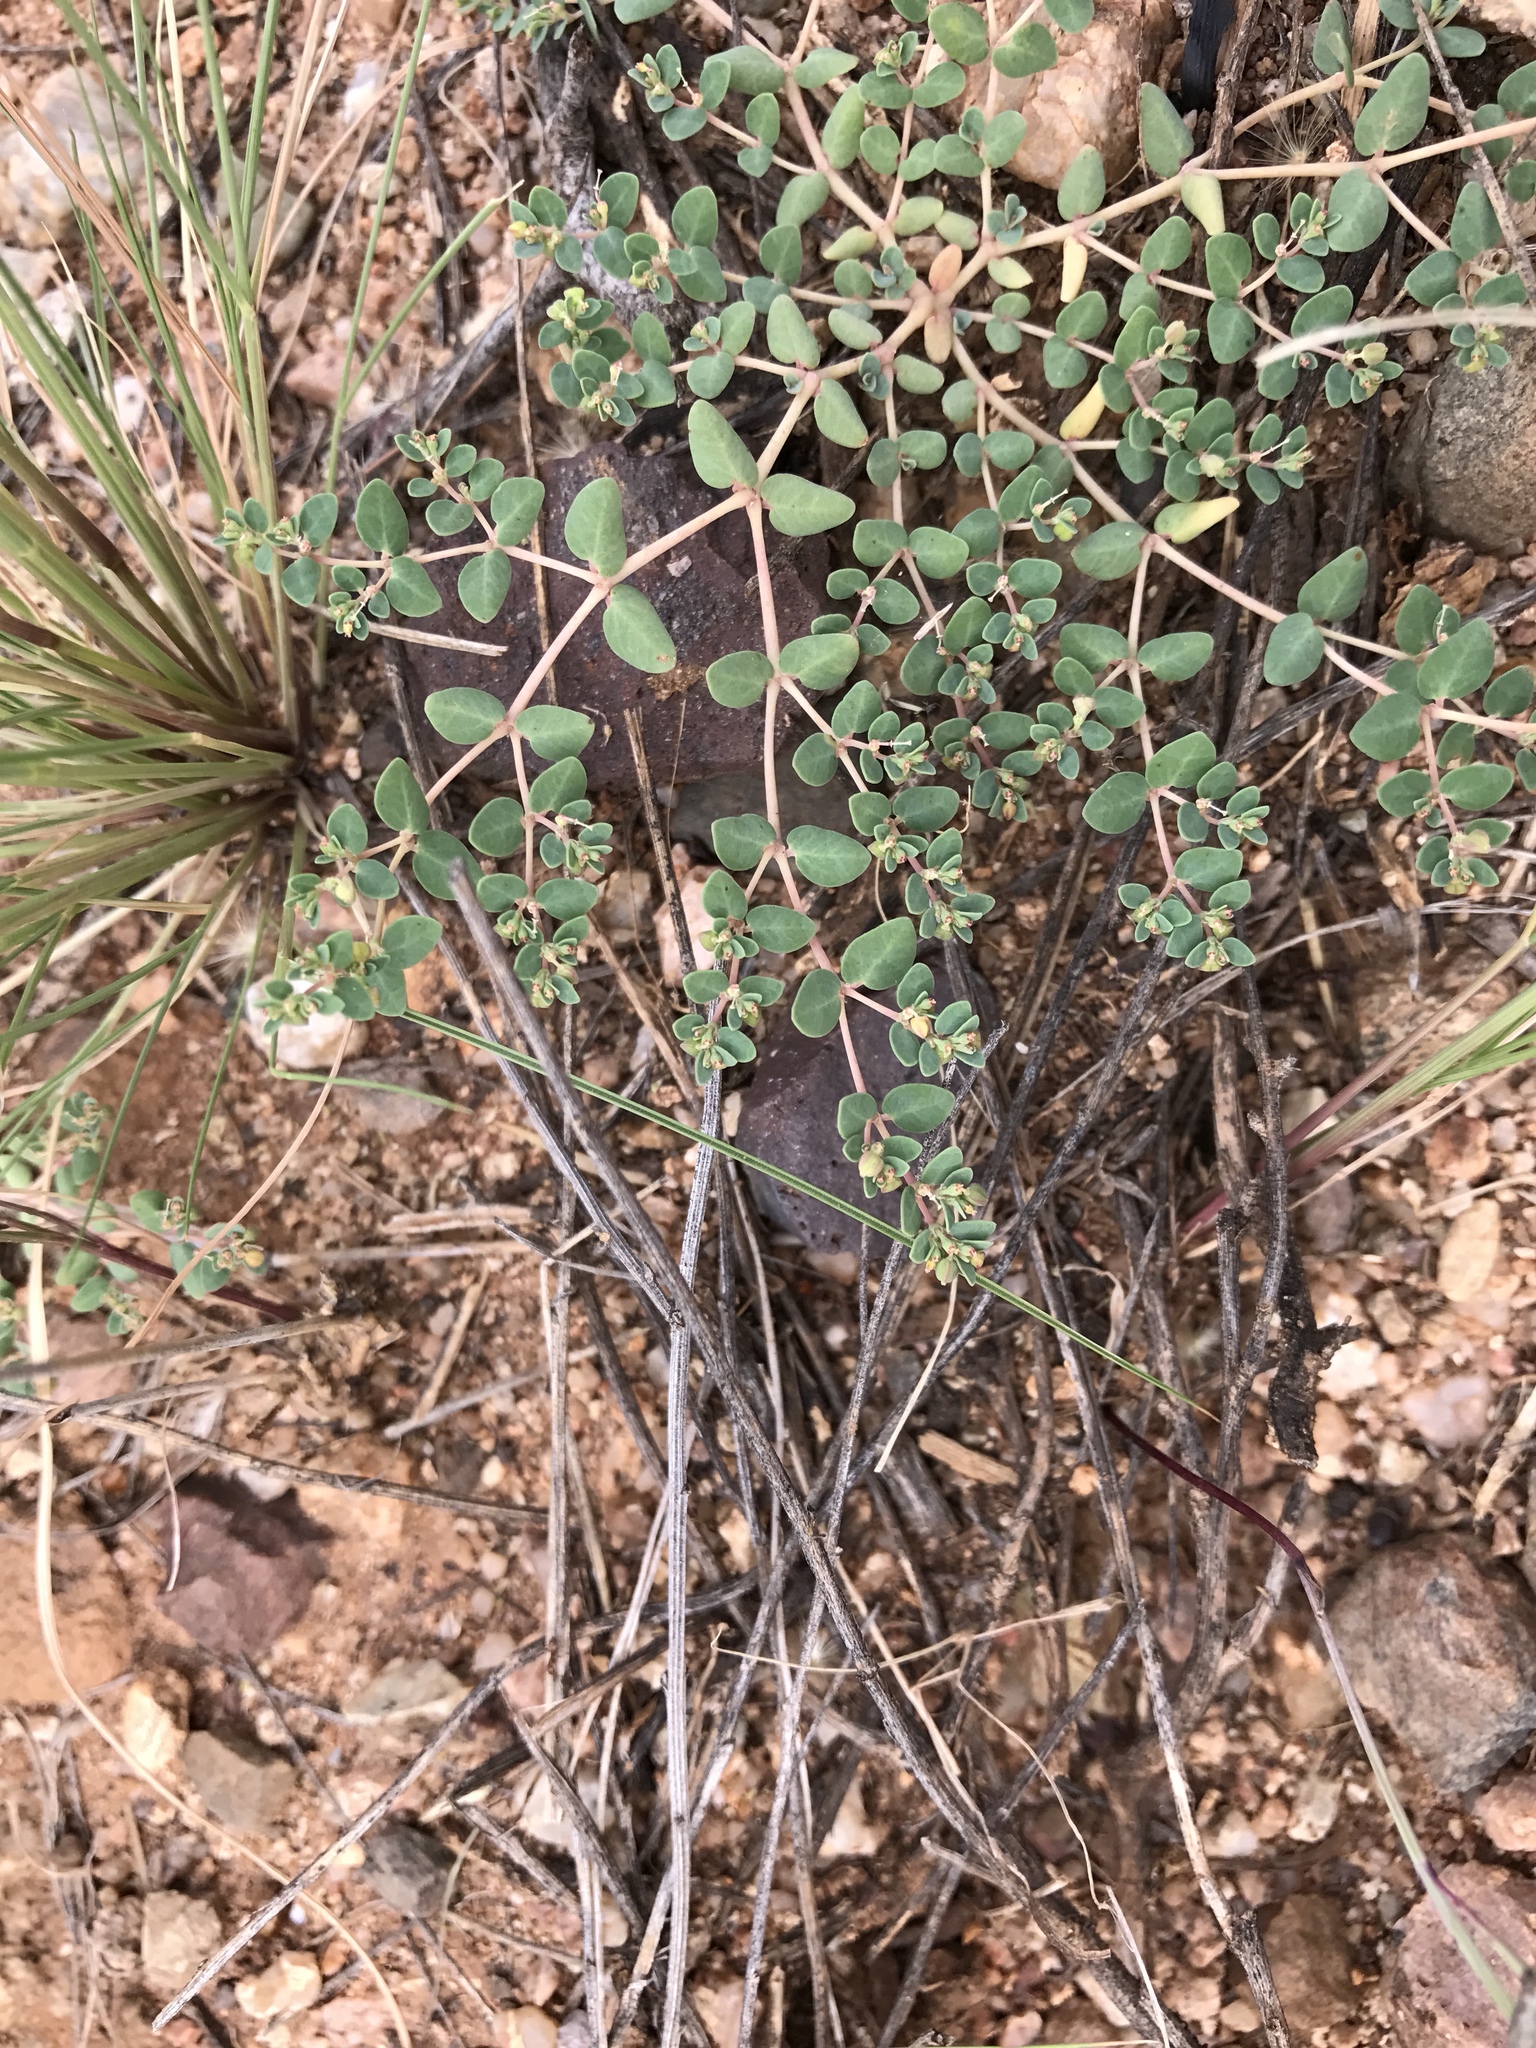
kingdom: Plantae
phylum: Tracheophyta
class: Magnoliopsida
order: Malpighiales
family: Euphorbiaceae
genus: Euphorbia
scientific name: Euphorbia micromera
